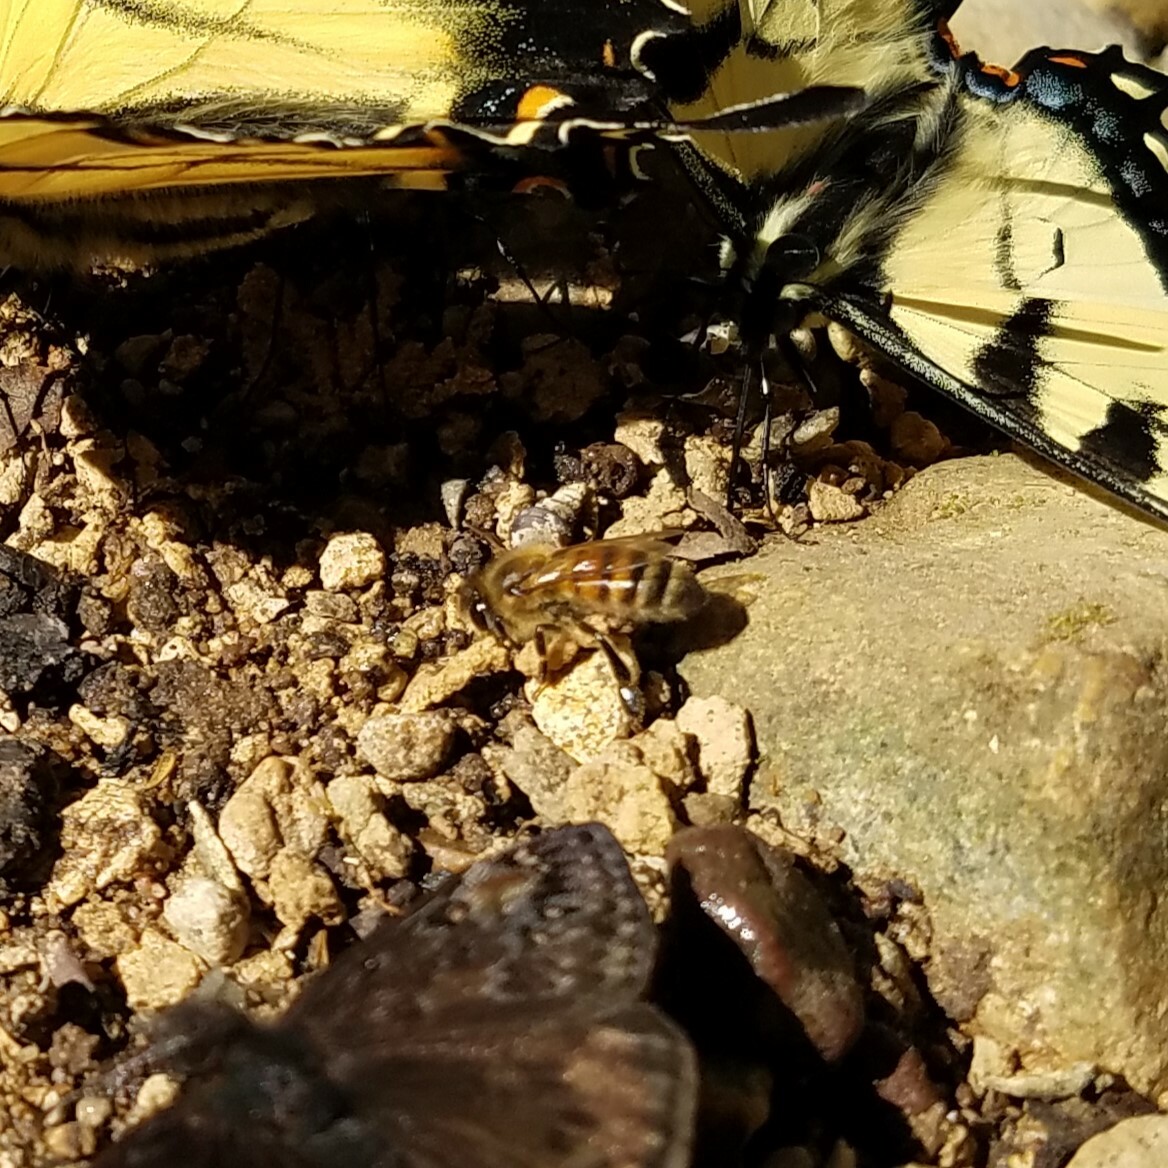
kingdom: Animalia
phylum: Arthropoda
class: Insecta
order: Hymenoptera
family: Apidae
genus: Apis
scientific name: Apis mellifera
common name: Honey bee
